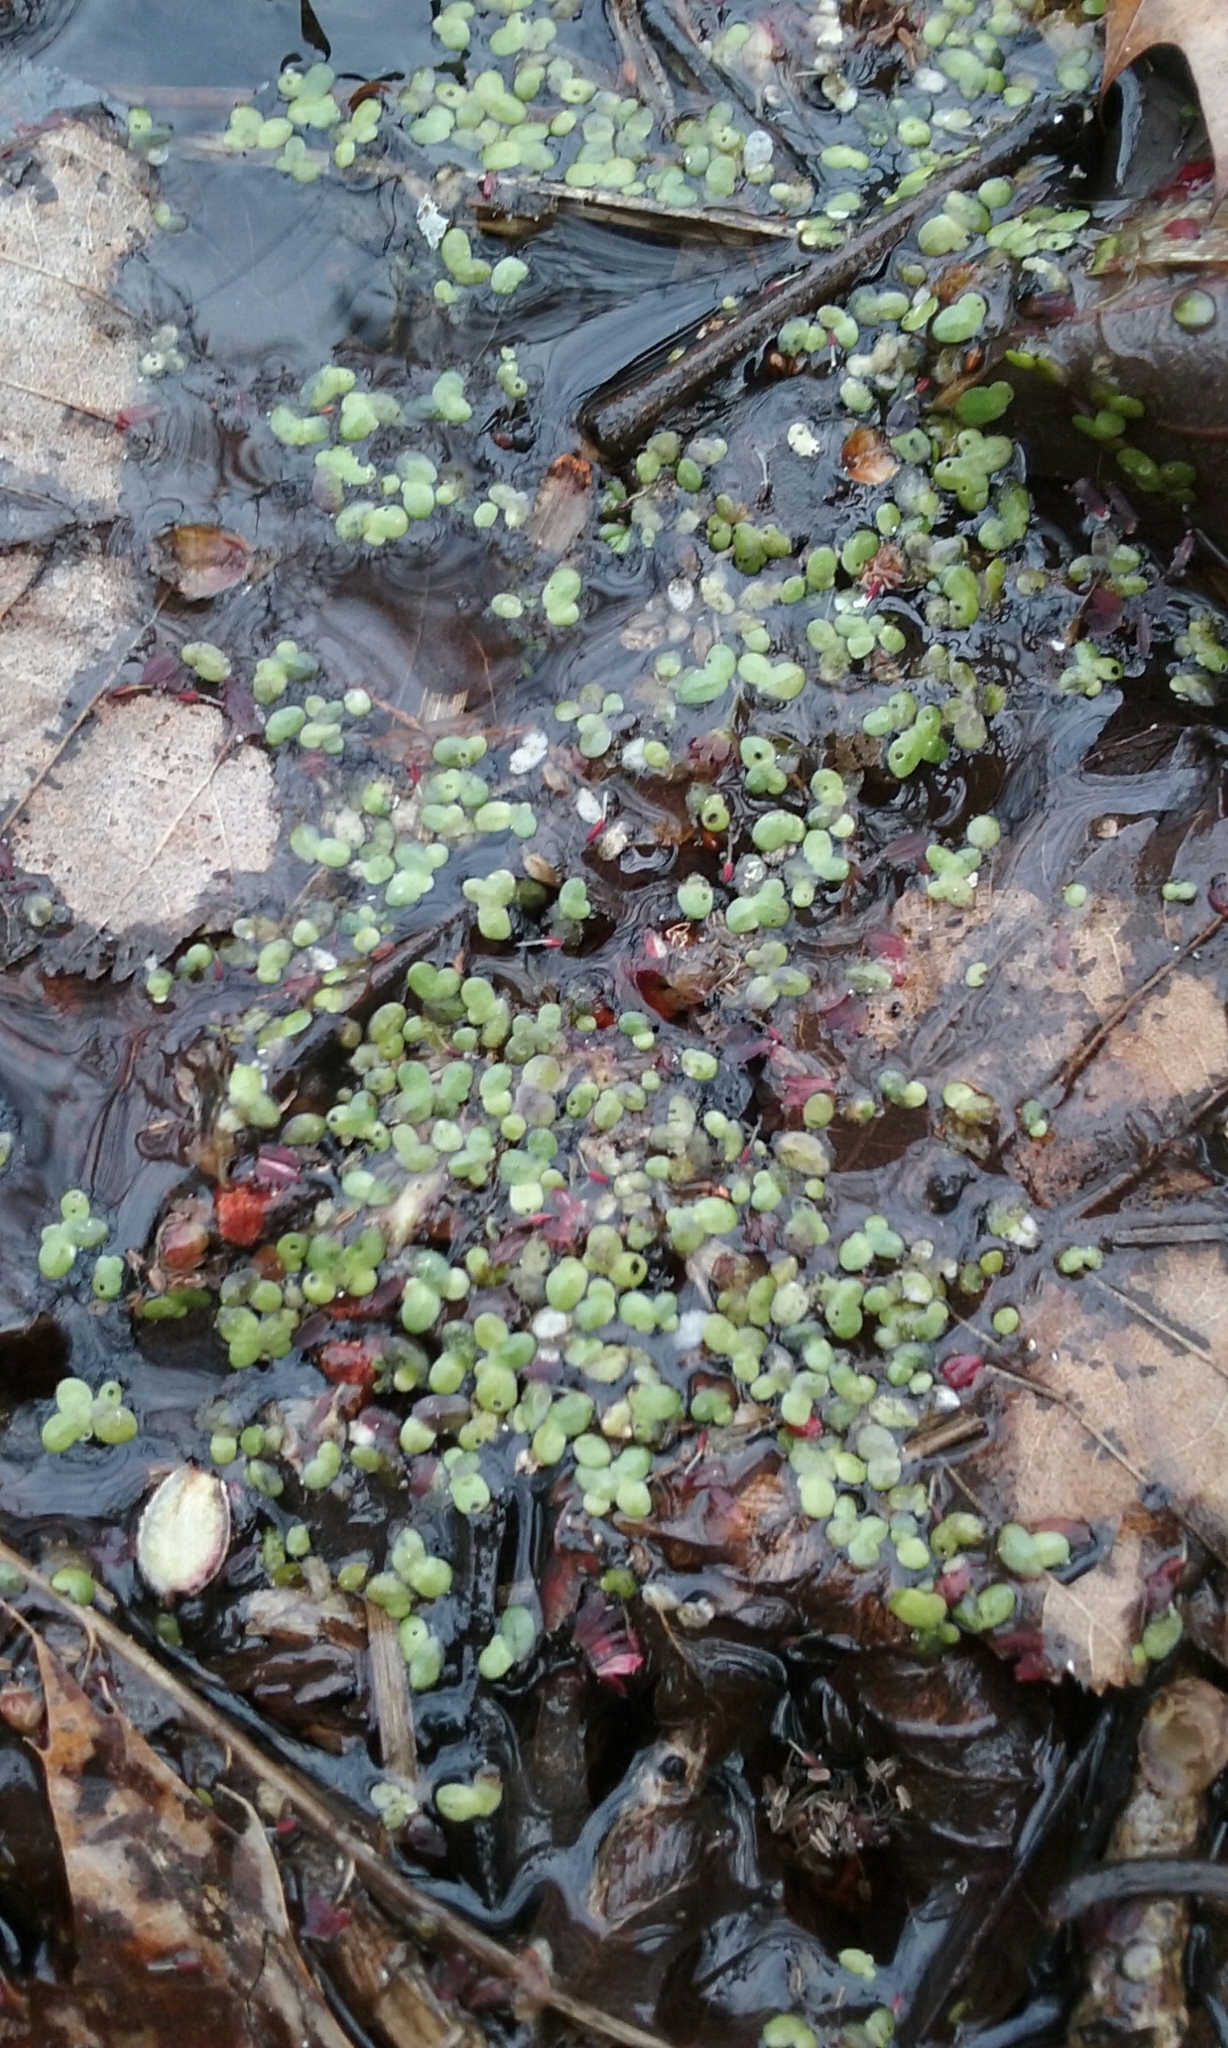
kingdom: Plantae
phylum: Tracheophyta
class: Liliopsida
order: Alismatales
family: Araceae
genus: Lemna
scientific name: Lemna minor
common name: Common duckweed
